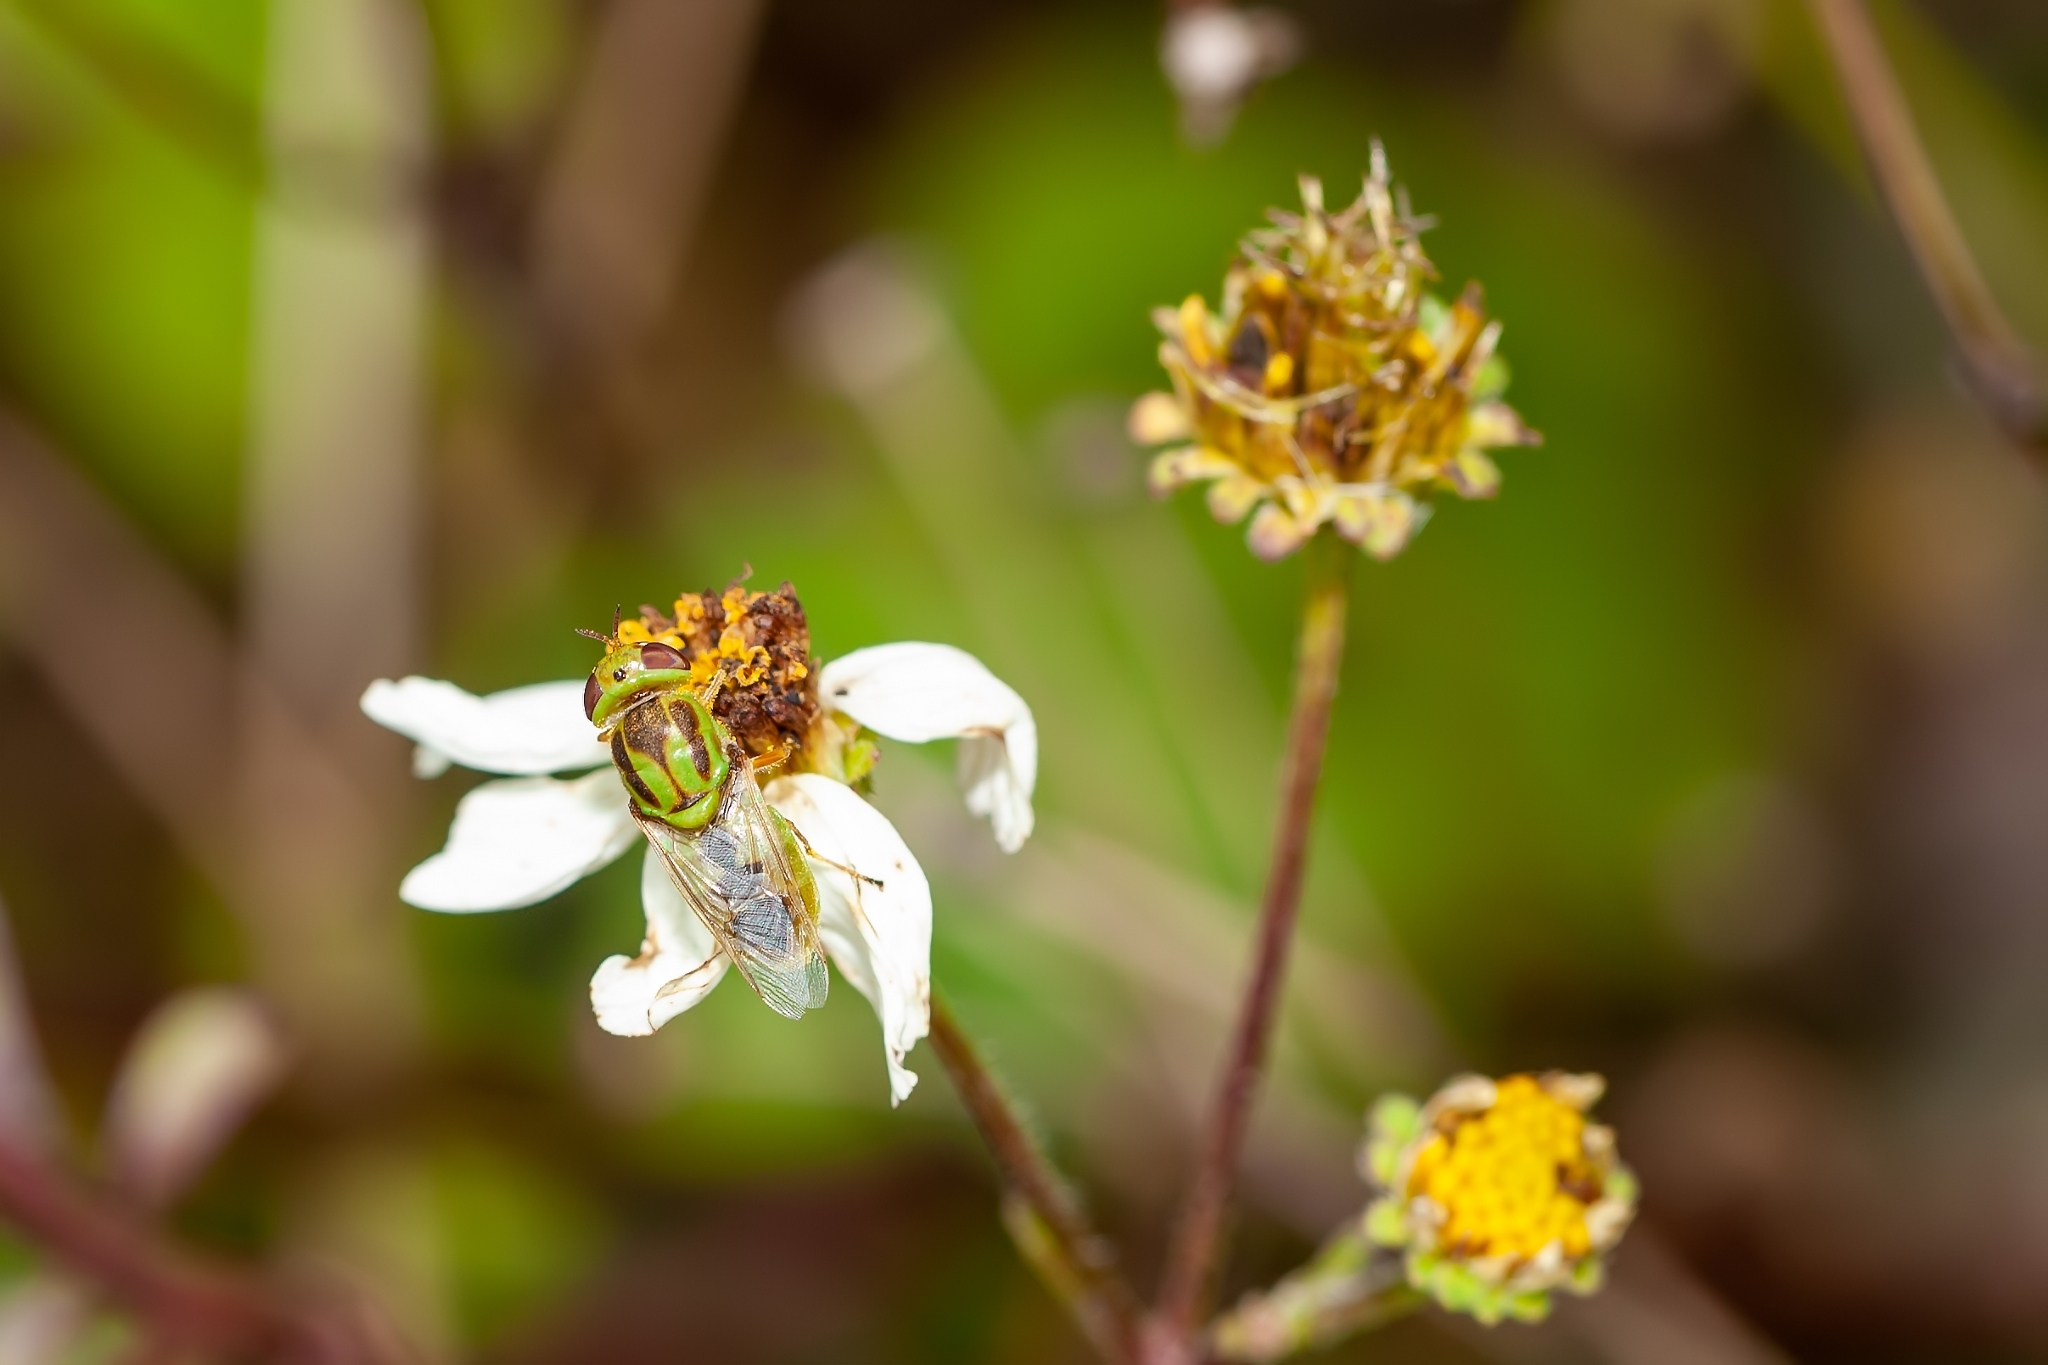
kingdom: Animalia
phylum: Arthropoda
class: Insecta
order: Diptera
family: Stratiomyidae
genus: Hedriodiscus
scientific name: Hedriodiscus trivittatus
